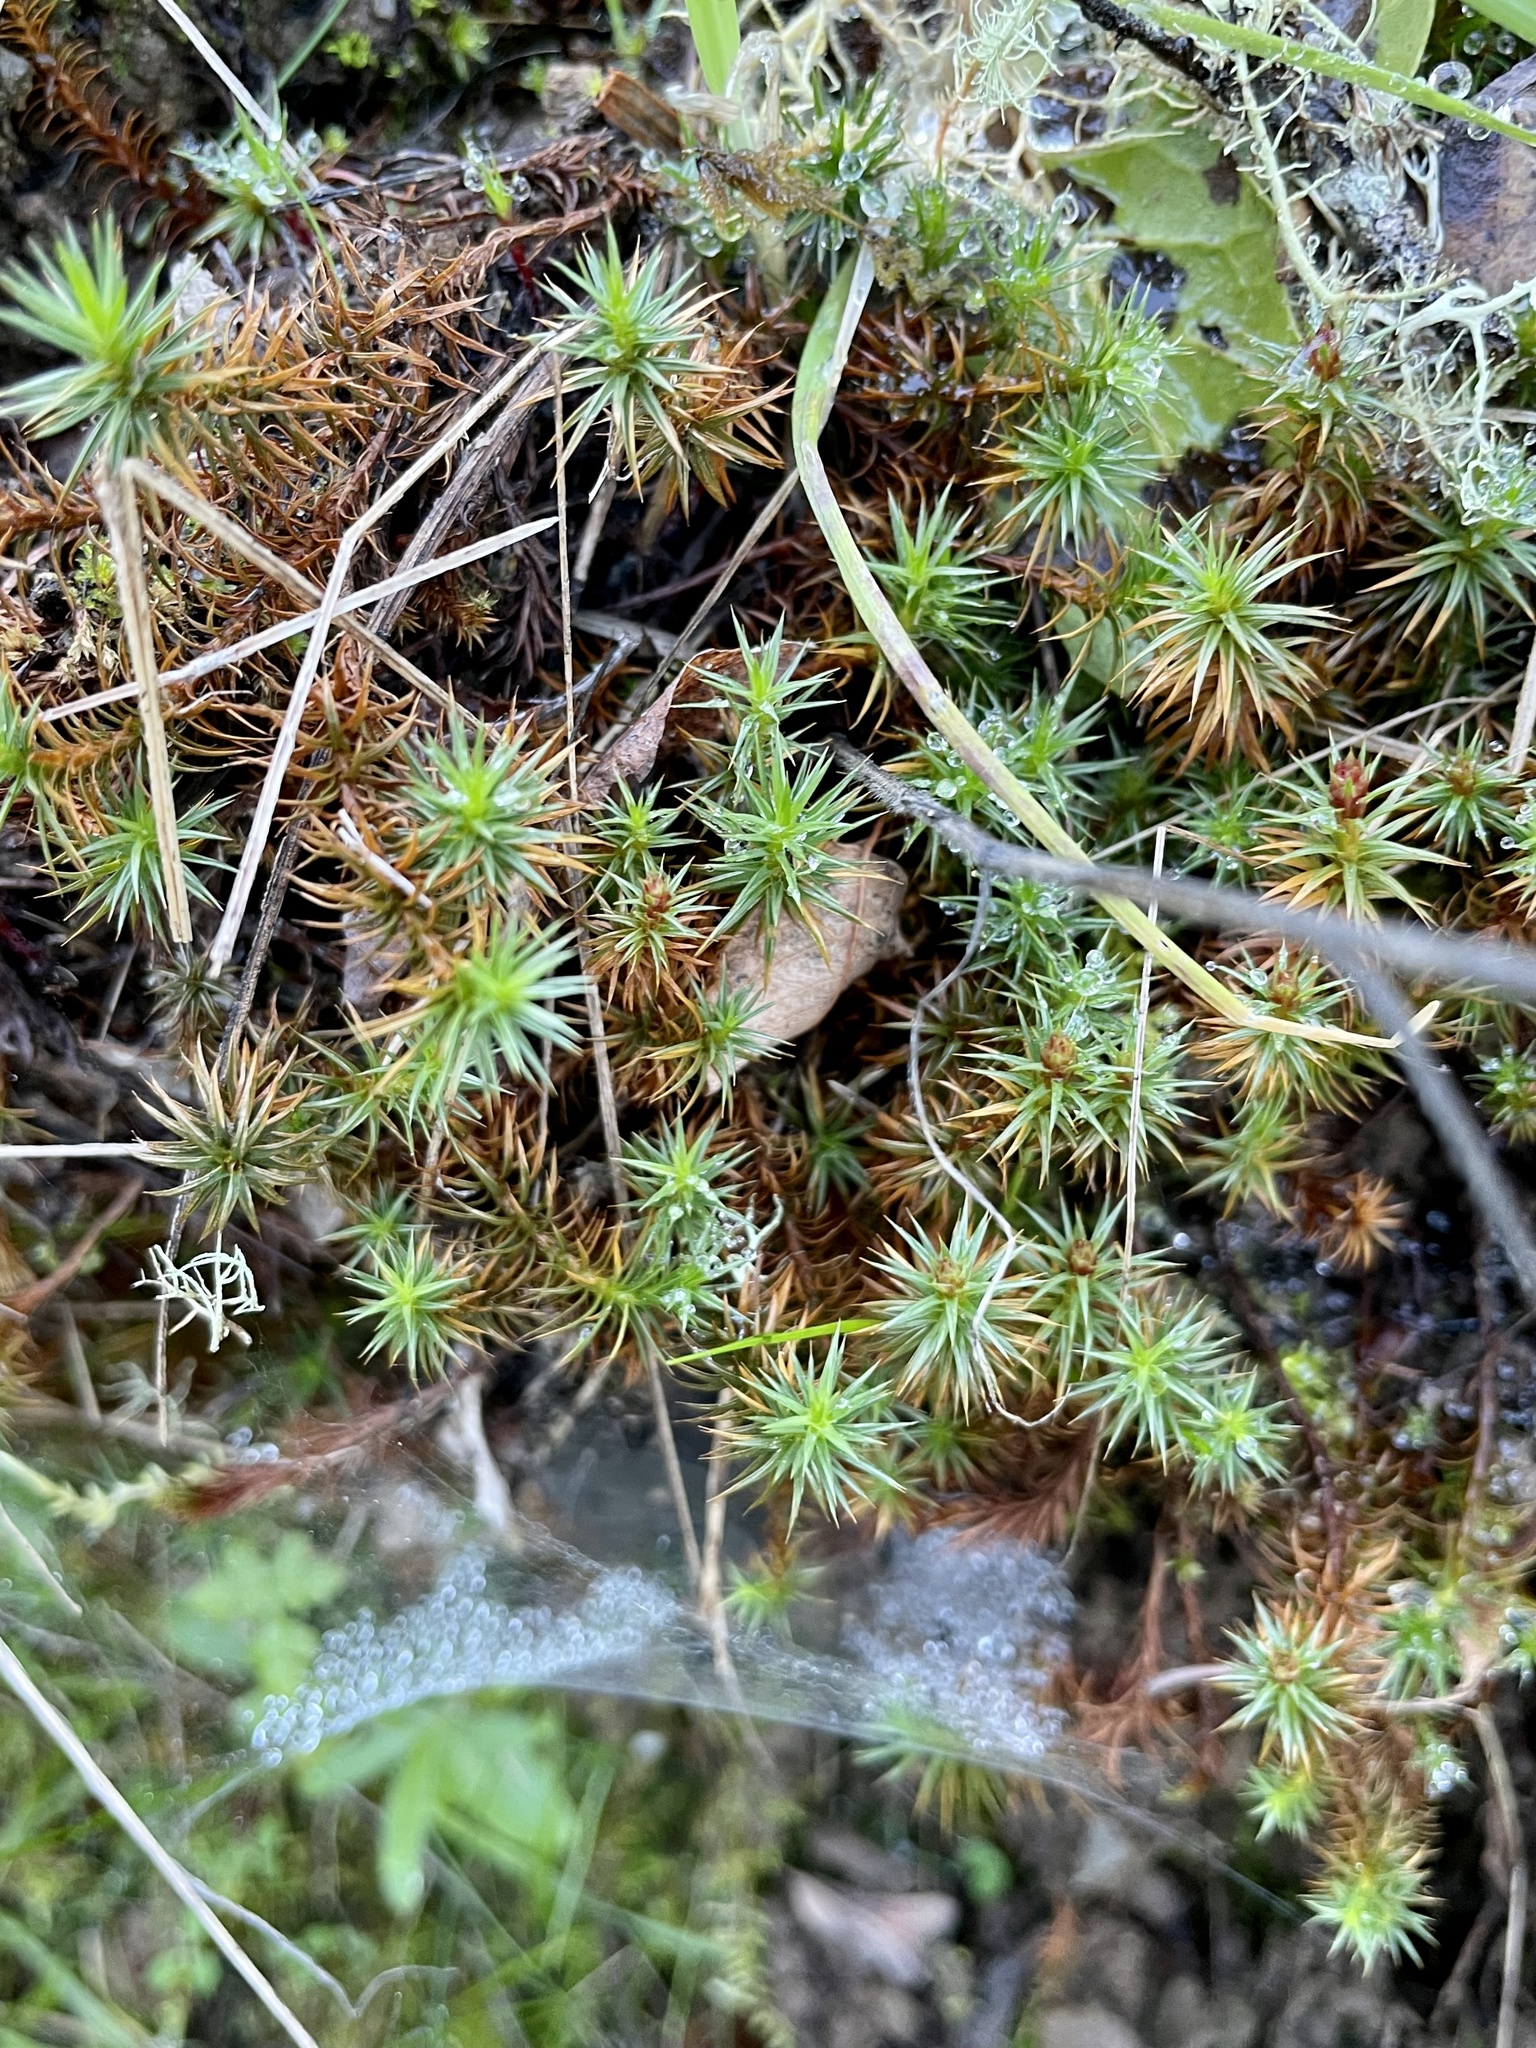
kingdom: Plantae
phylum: Bryophyta
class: Polytrichopsida
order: Polytrichales
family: Polytrichaceae
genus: Polytrichum
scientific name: Polytrichum juniperinum
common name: Juniper haircap moss
